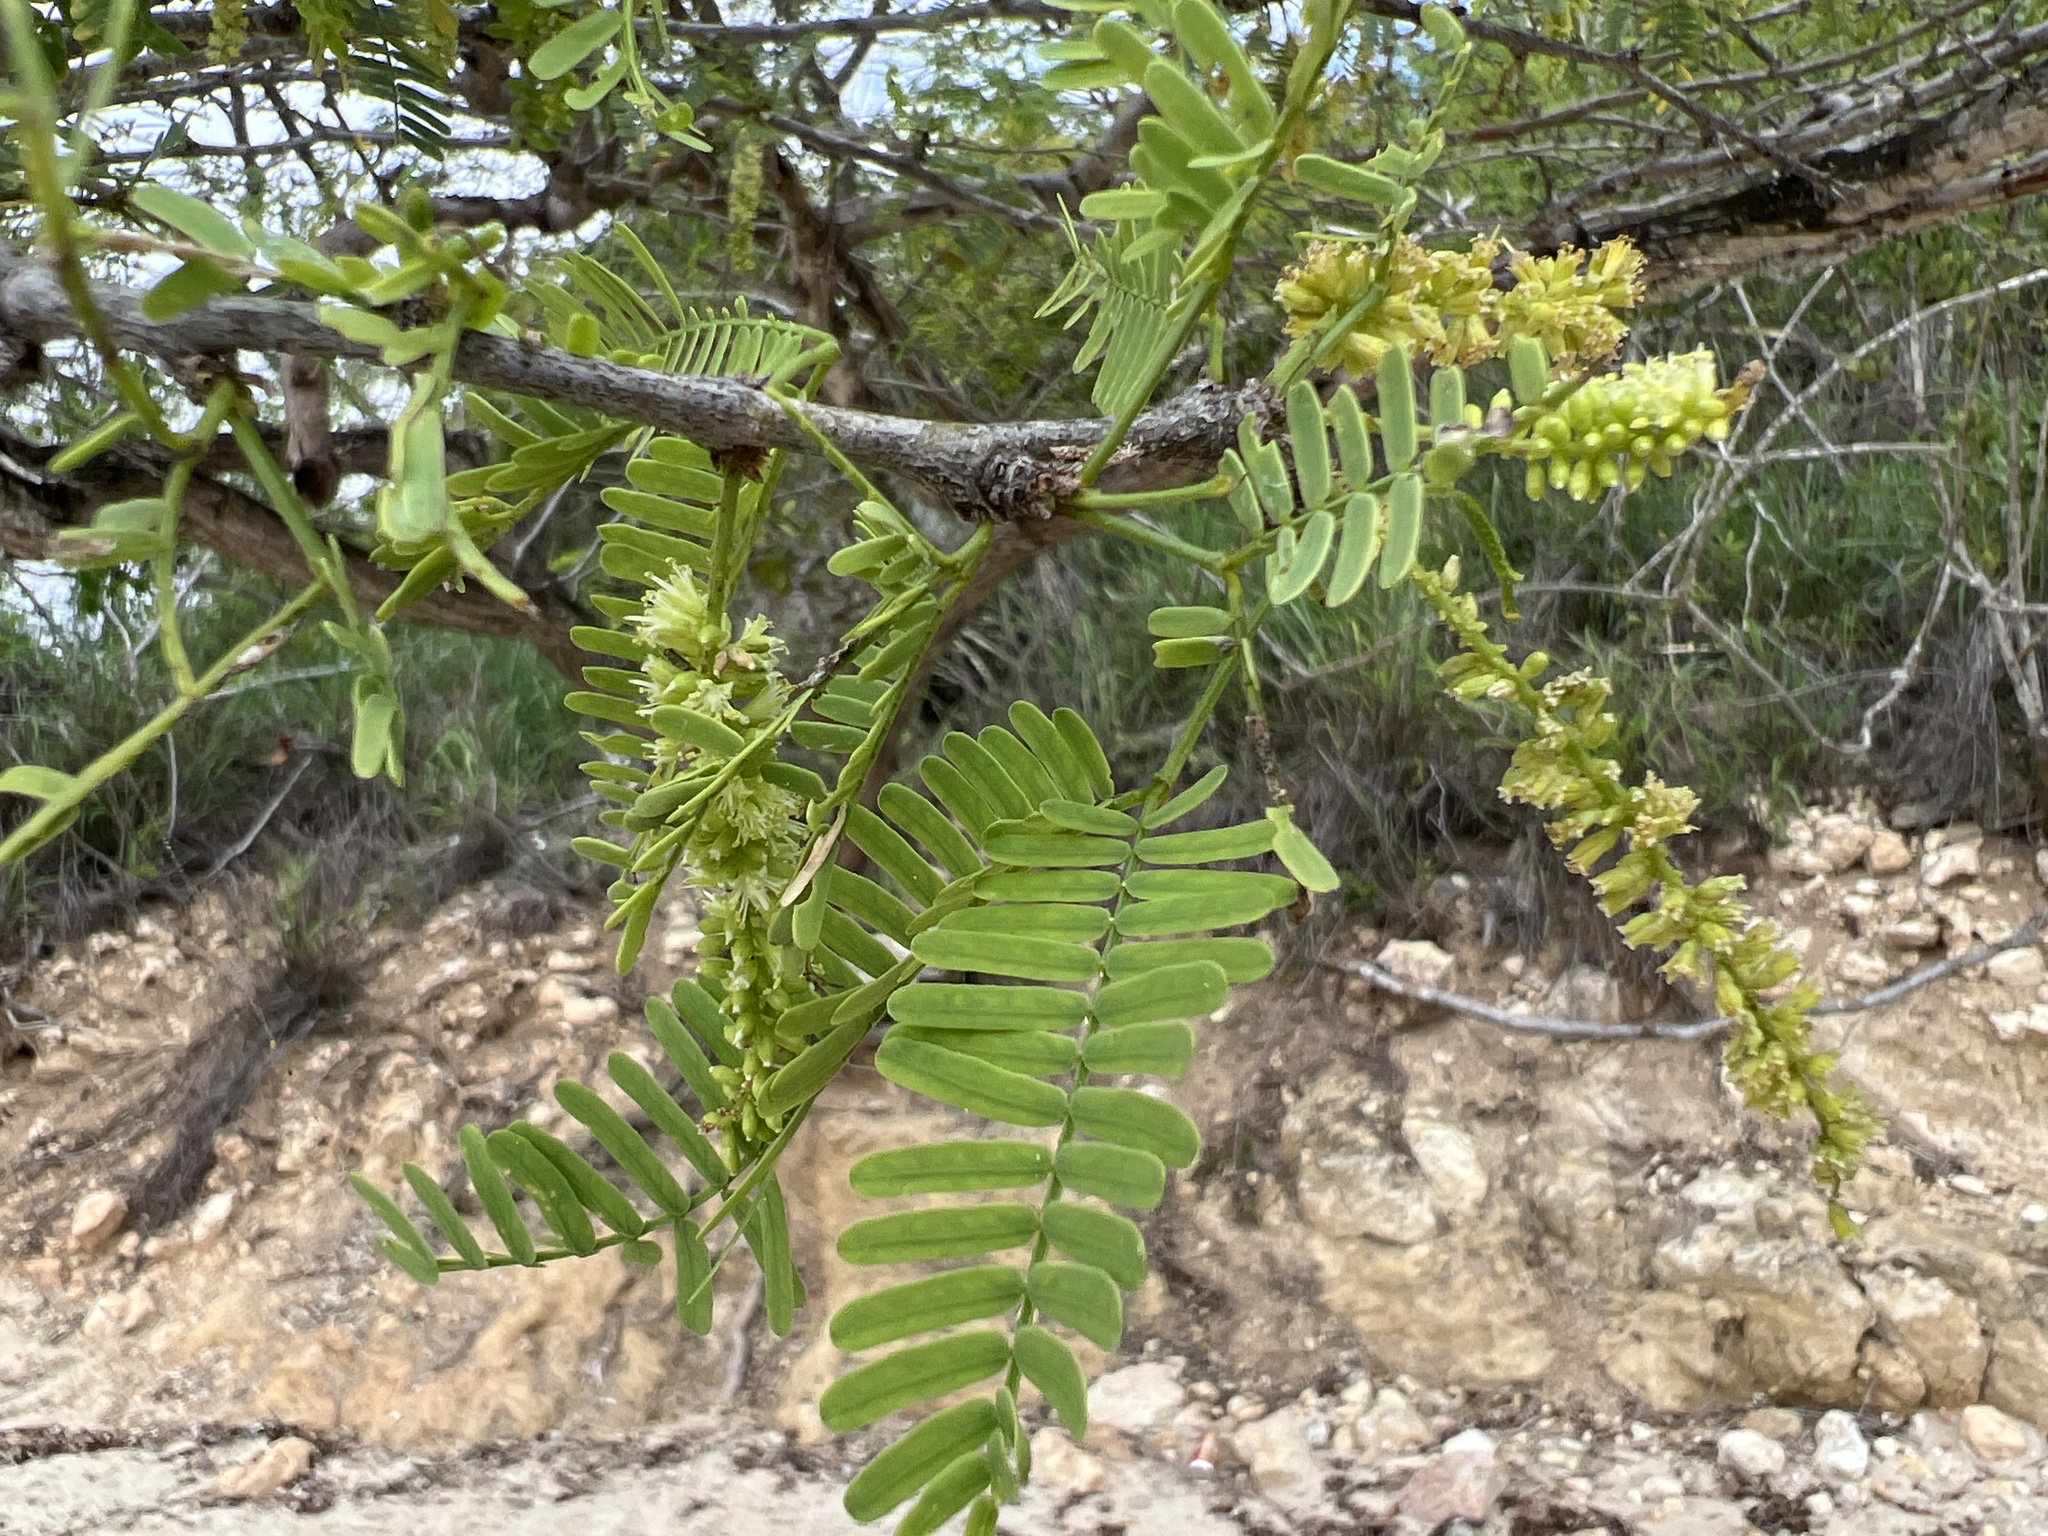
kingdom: Plantae
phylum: Tracheophyta
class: Magnoliopsida
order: Fabales
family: Fabaceae
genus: Prosopis
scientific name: Prosopis juliflora
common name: Mesquite
